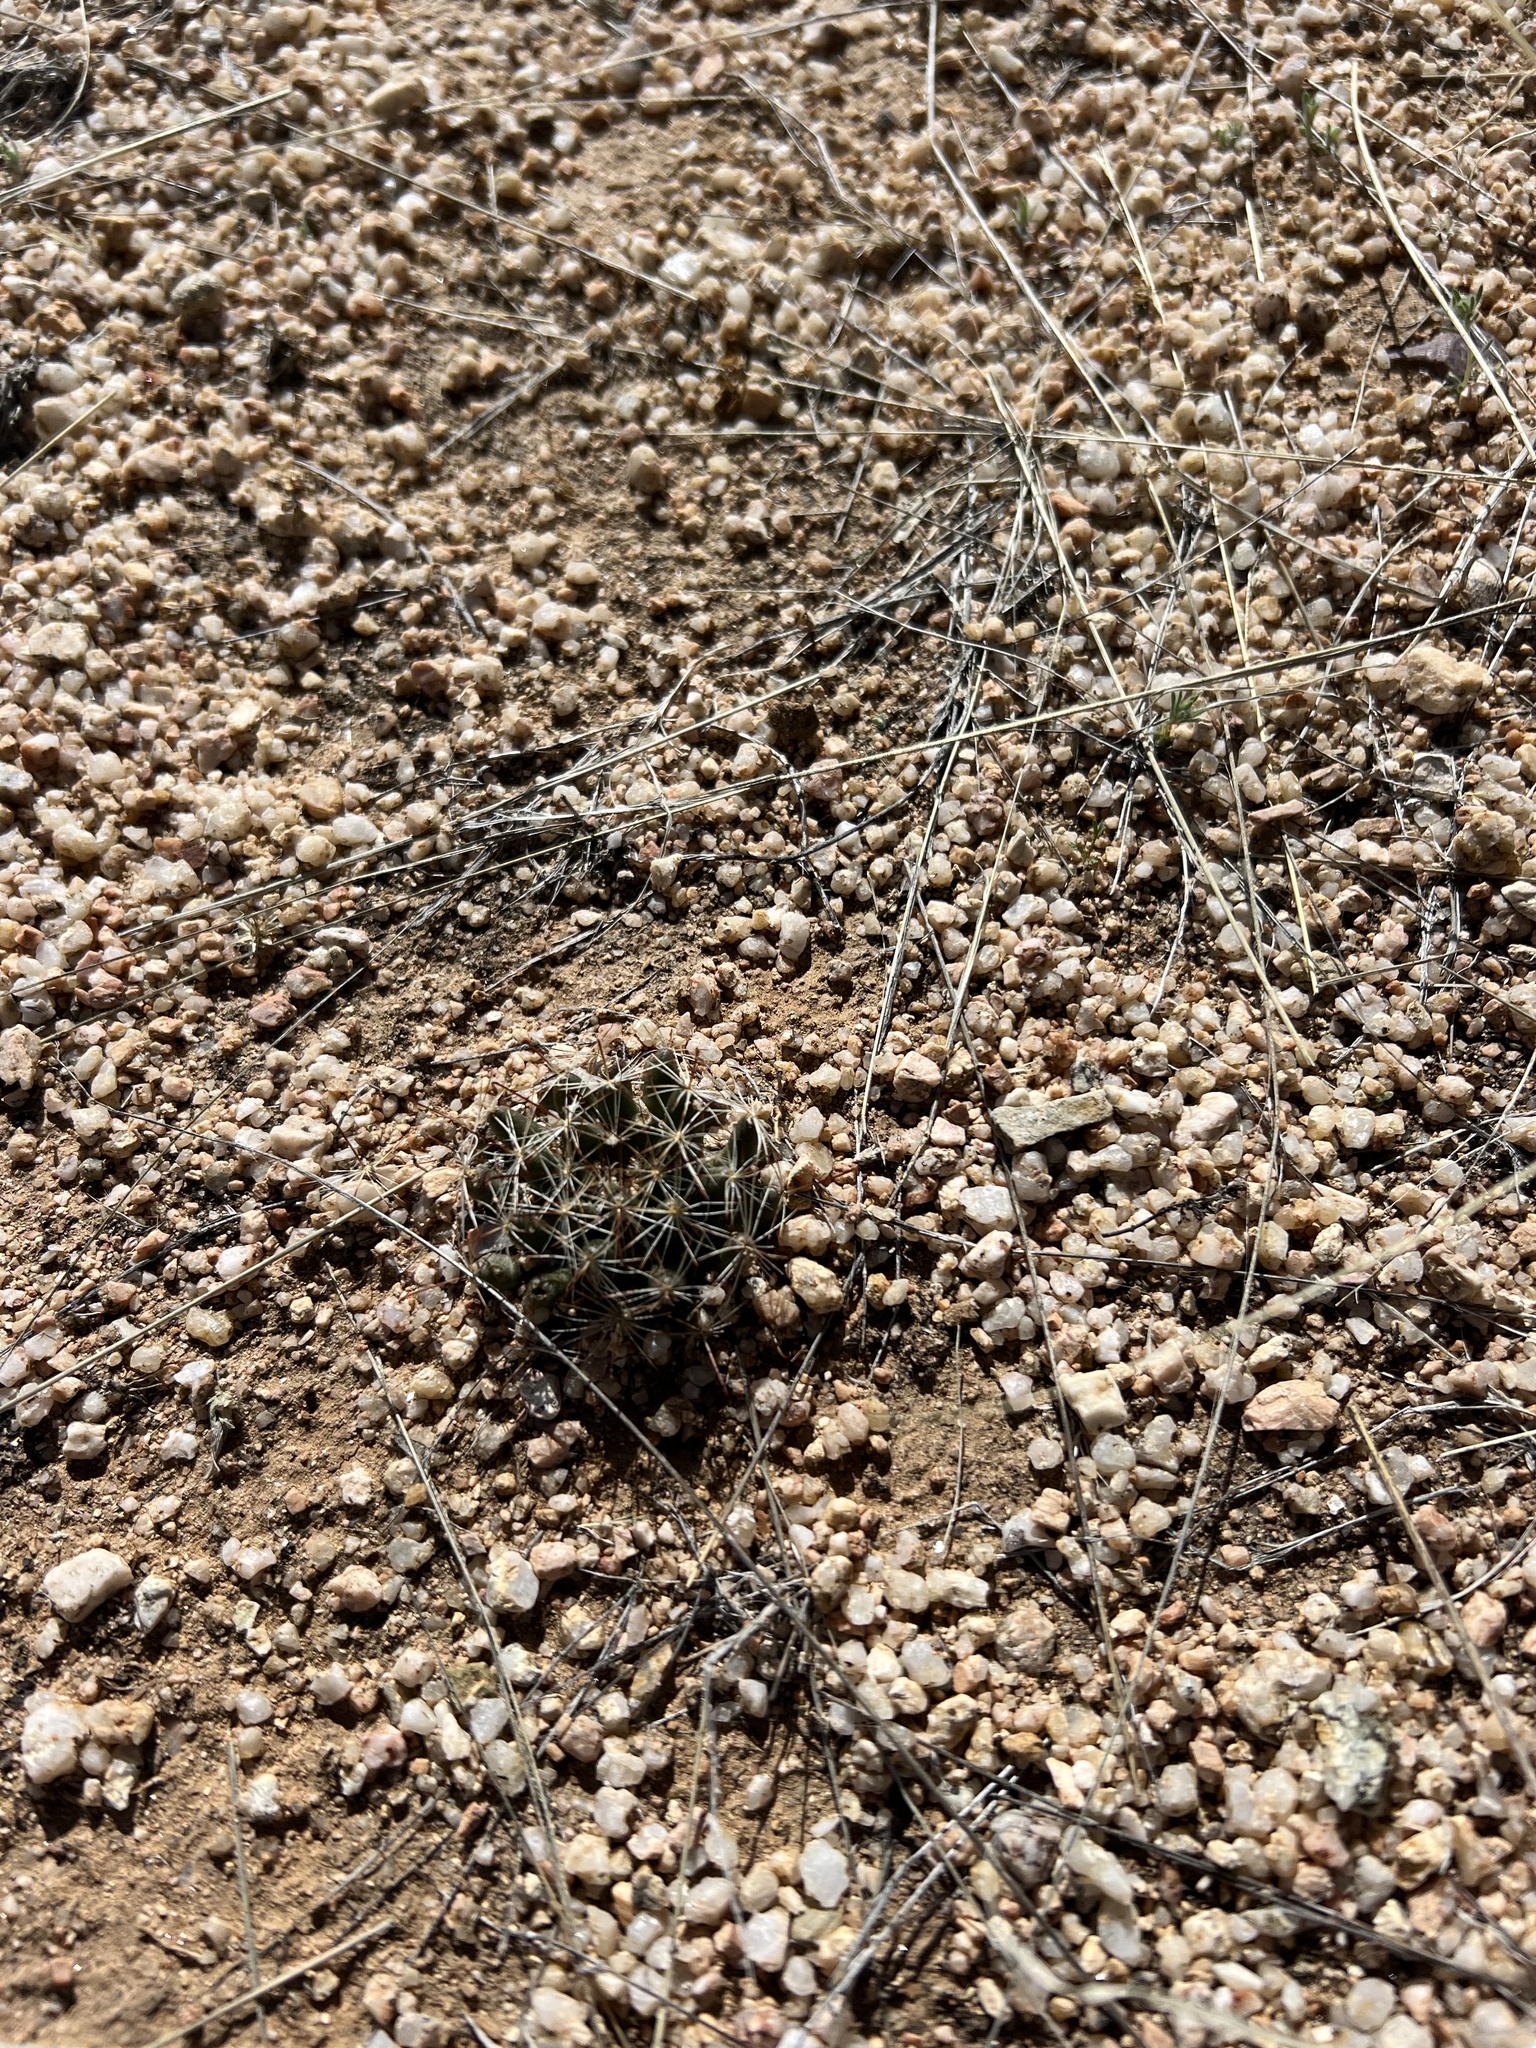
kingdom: Plantae
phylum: Tracheophyta
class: Magnoliopsida
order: Caryophyllales
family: Cactaceae
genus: Cochemiea
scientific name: Cochemiea wrightii
